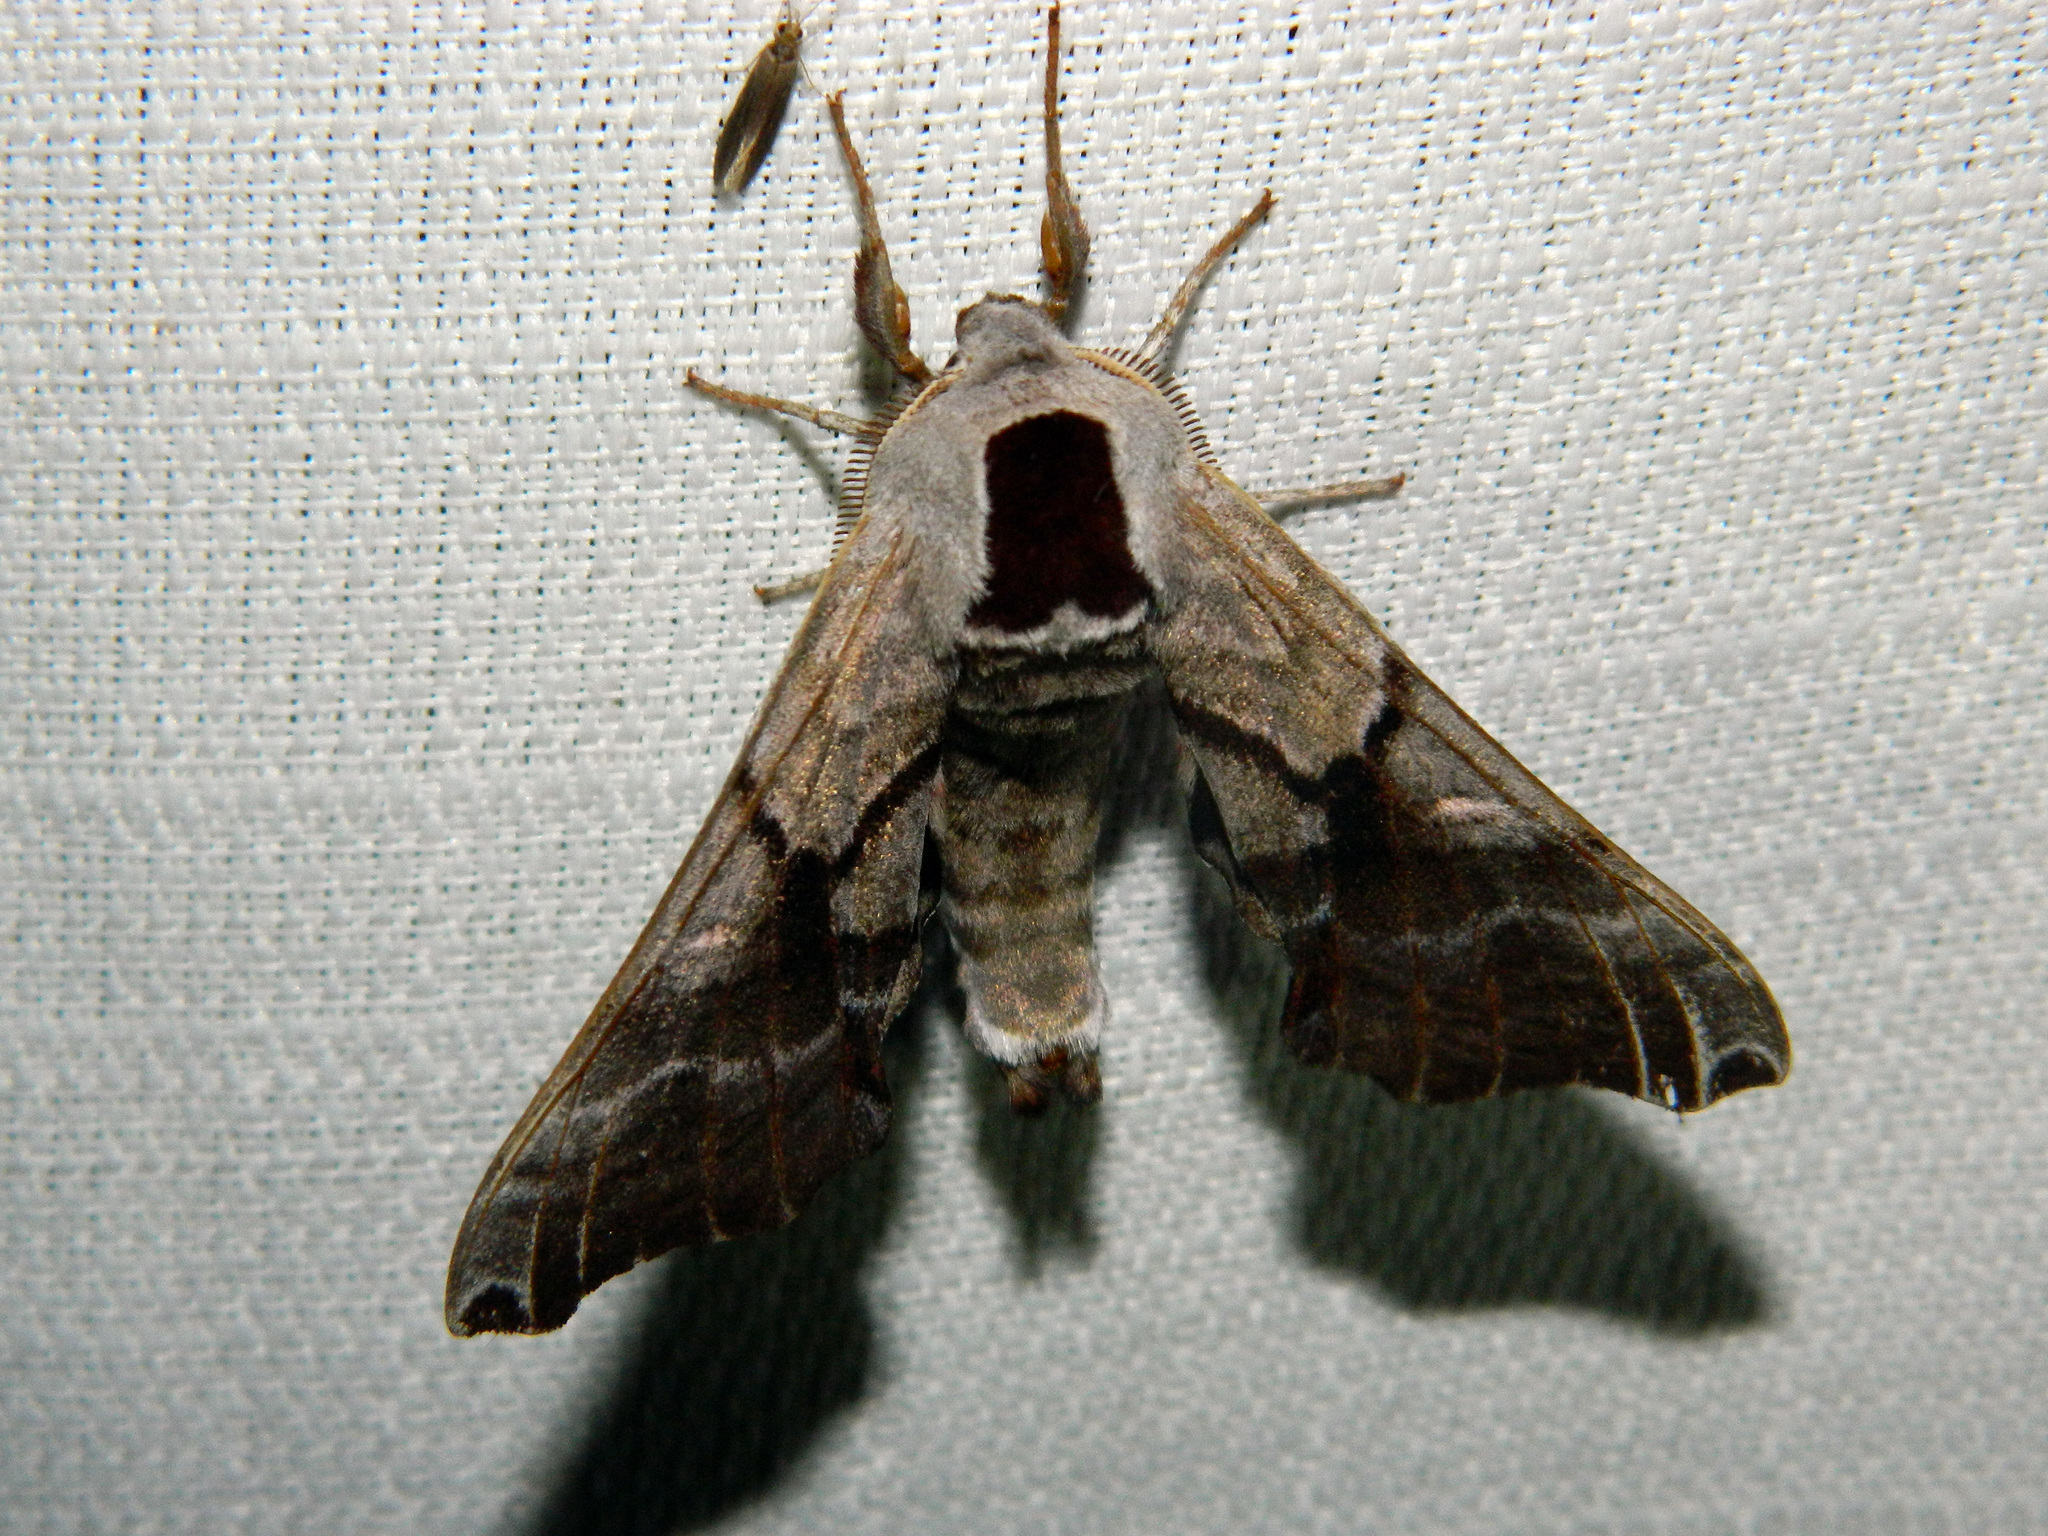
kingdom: Animalia
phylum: Arthropoda
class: Insecta
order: Lepidoptera
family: Sphingidae
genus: Smerinthus
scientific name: Smerinthus jamaicensis
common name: Twin spotted sphinx
